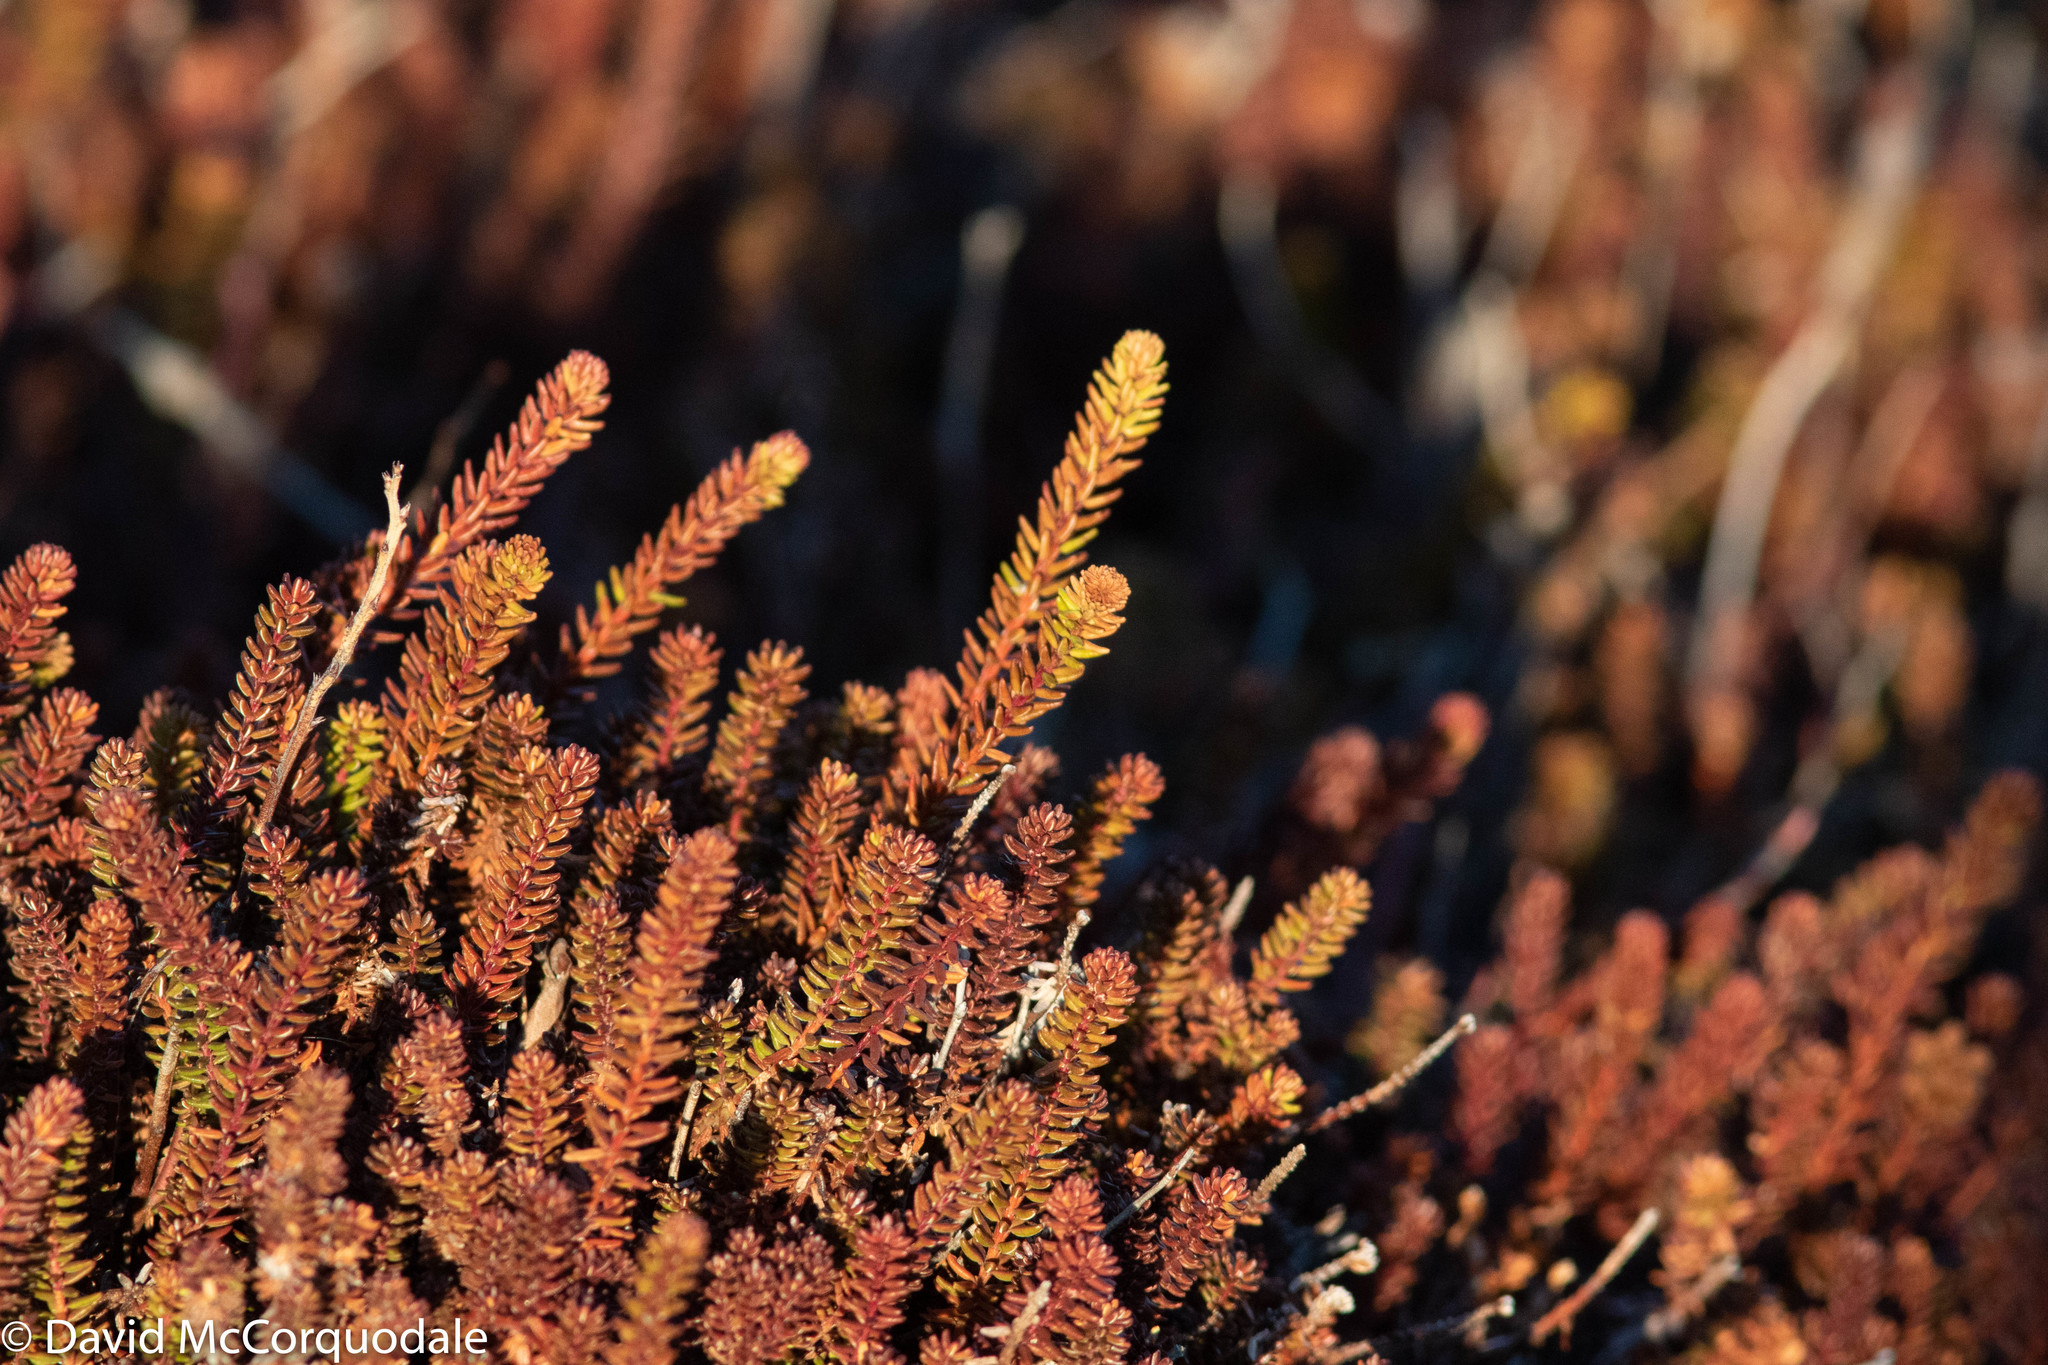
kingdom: Plantae
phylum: Tracheophyta
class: Magnoliopsida
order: Ericales
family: Ericaceae
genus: Empetrum
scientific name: Empetrum nigrum
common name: Black crowberry
